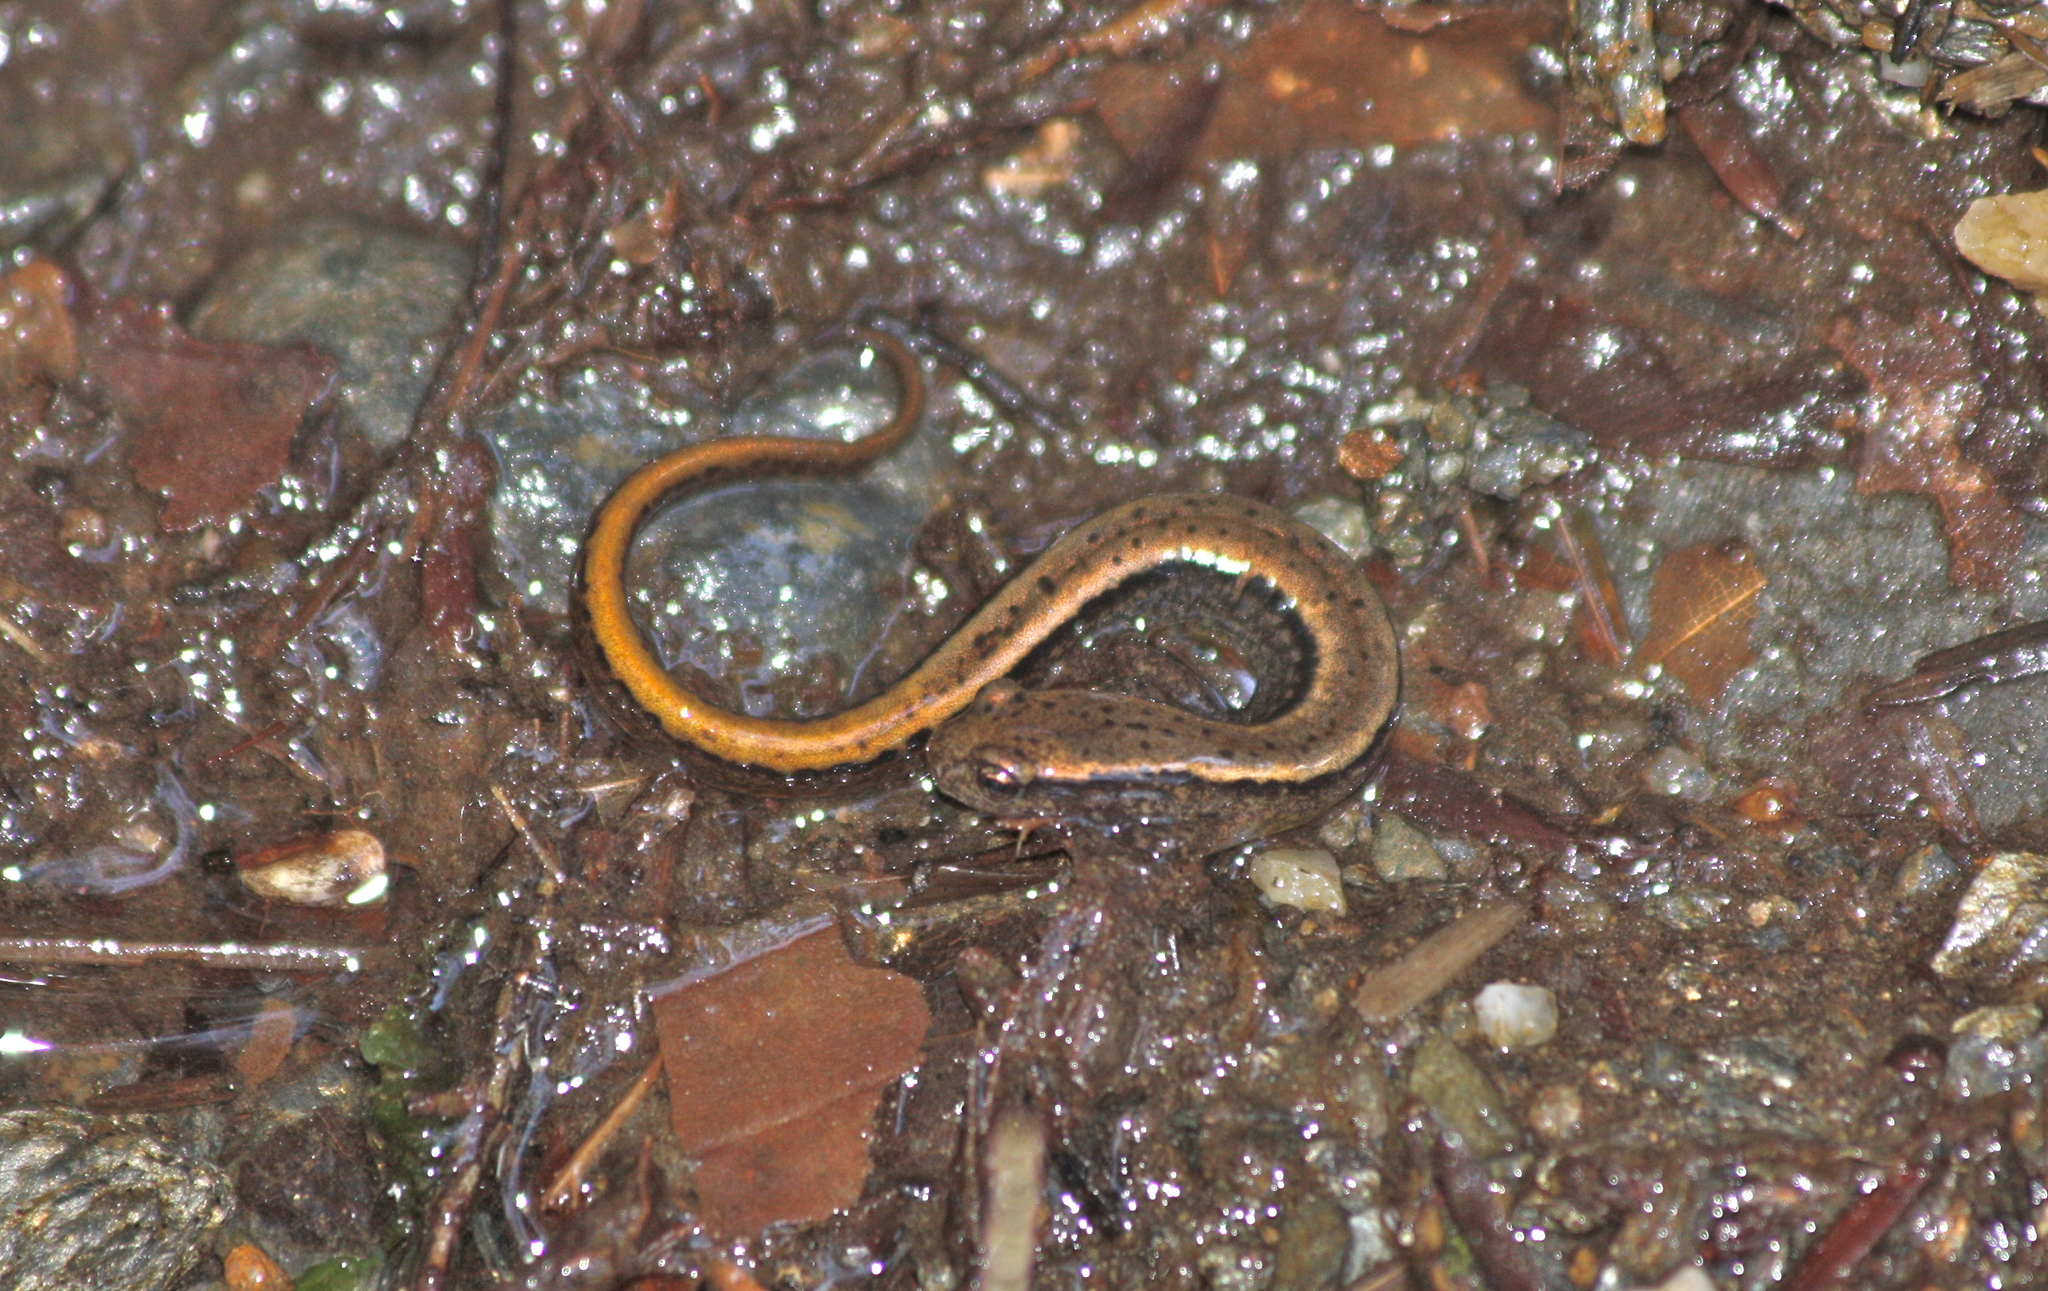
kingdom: Animalia
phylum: Chordata
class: Amphibia
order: Caudata
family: Plethodontidae
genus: Eurycea
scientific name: Eurycea bislineata
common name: Northern two-lined salamander
